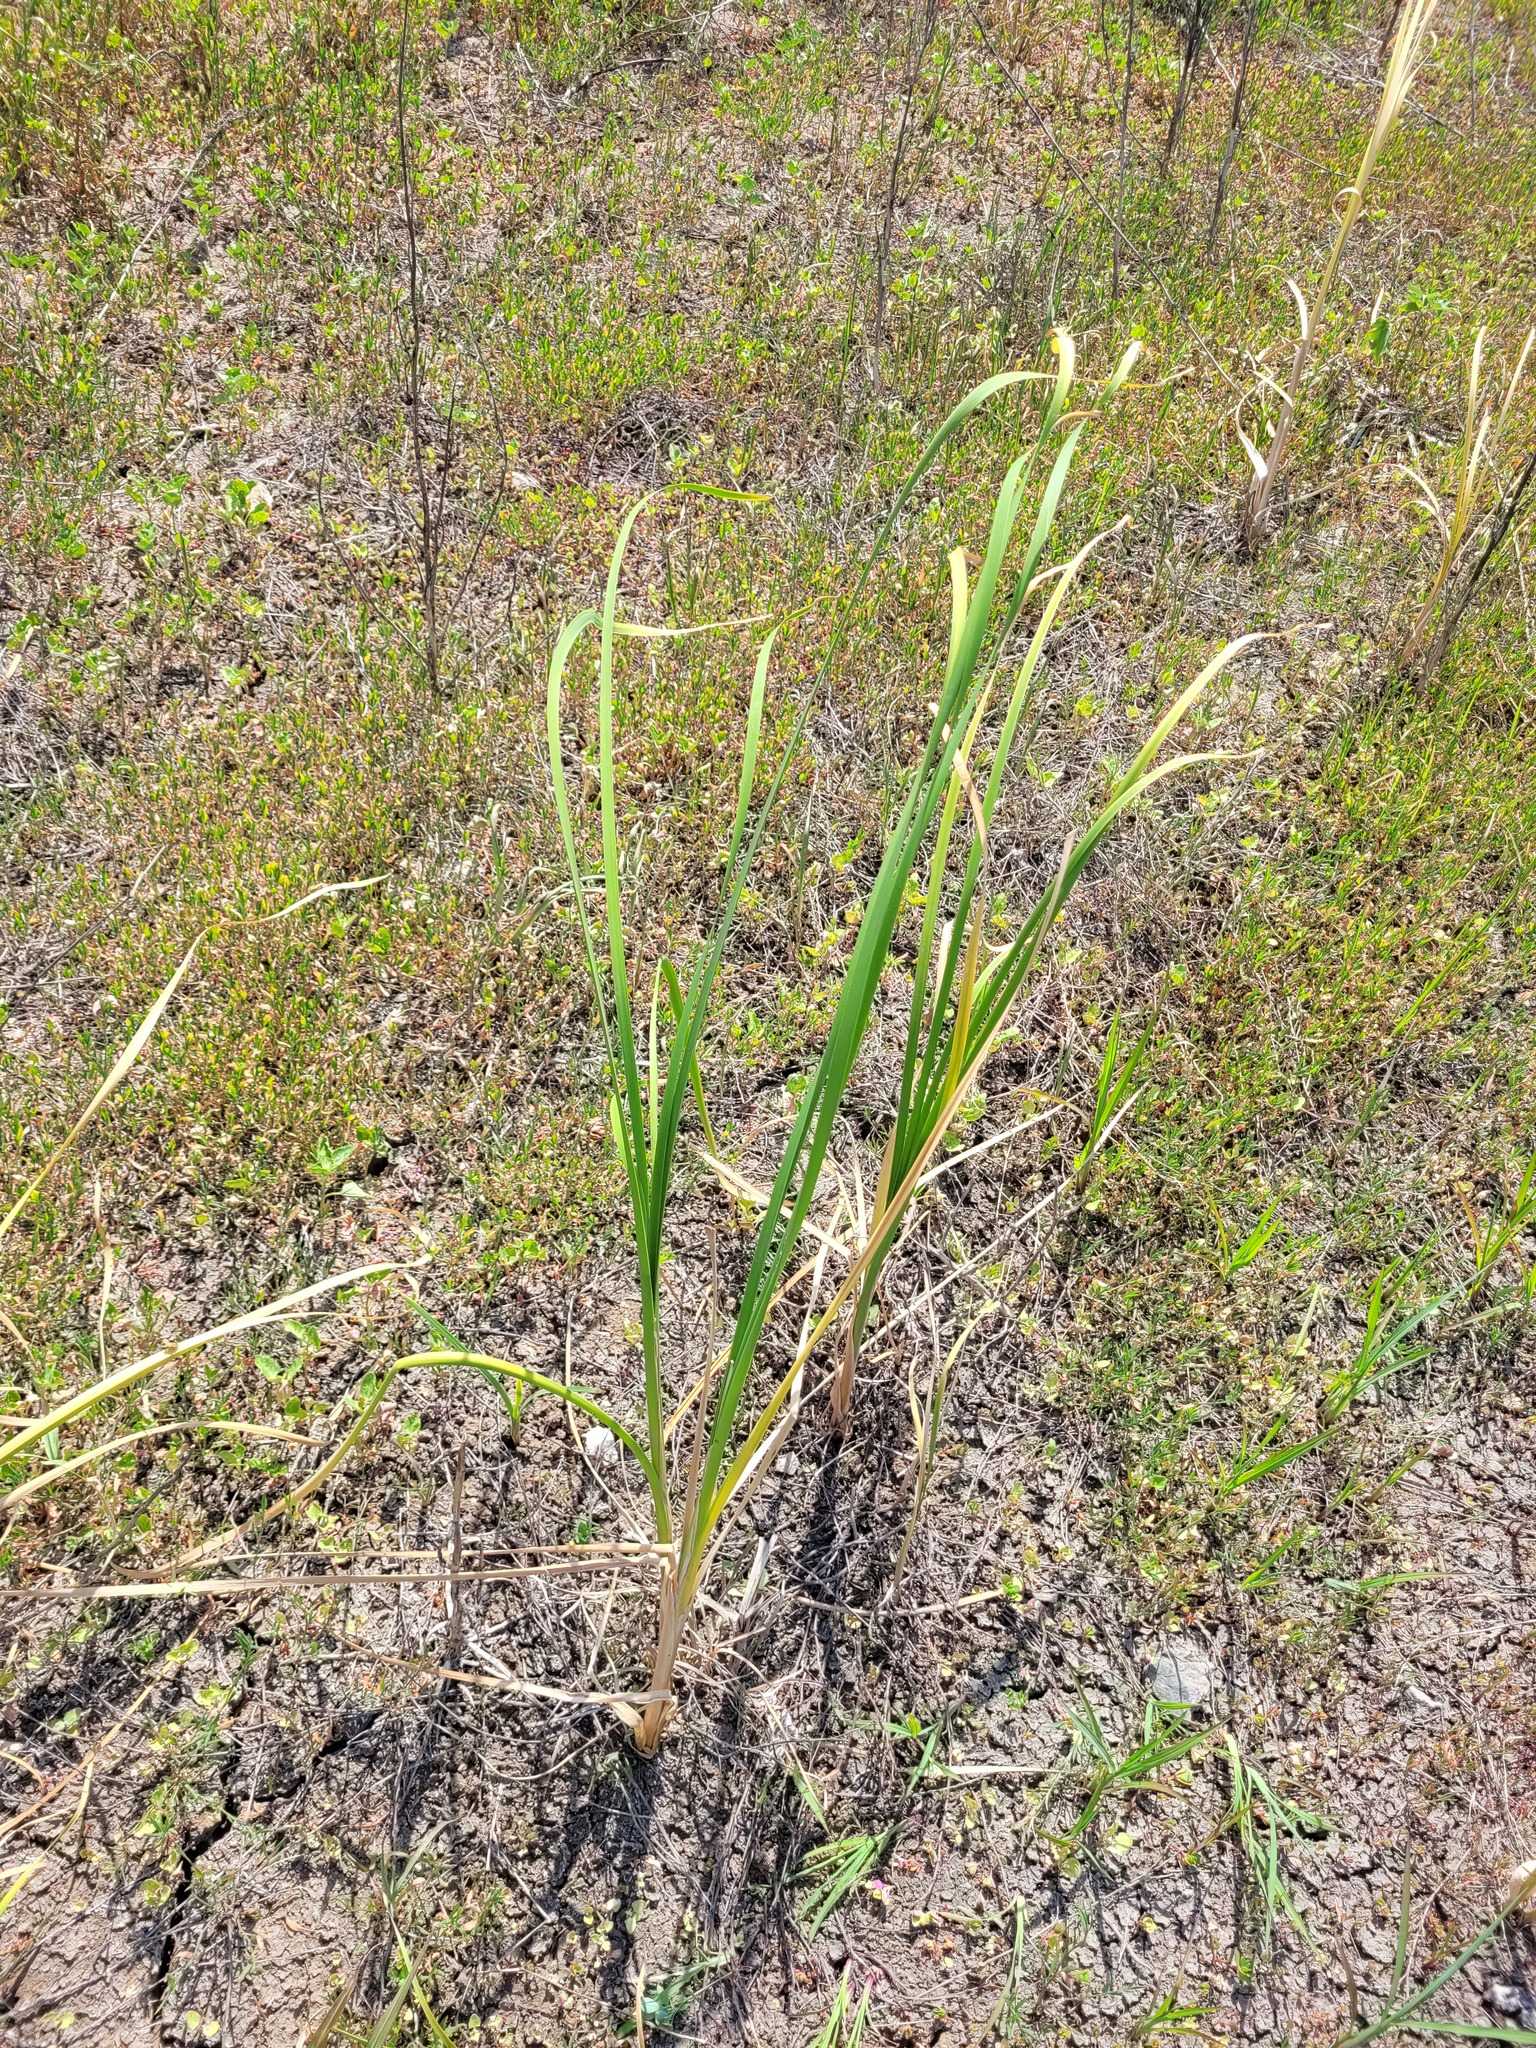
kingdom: Plantae
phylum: Tracheophyta
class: Liliopsida
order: Poales
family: Typhaceae
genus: Typha
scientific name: Typha angustifolia
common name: Lesser bulrush
